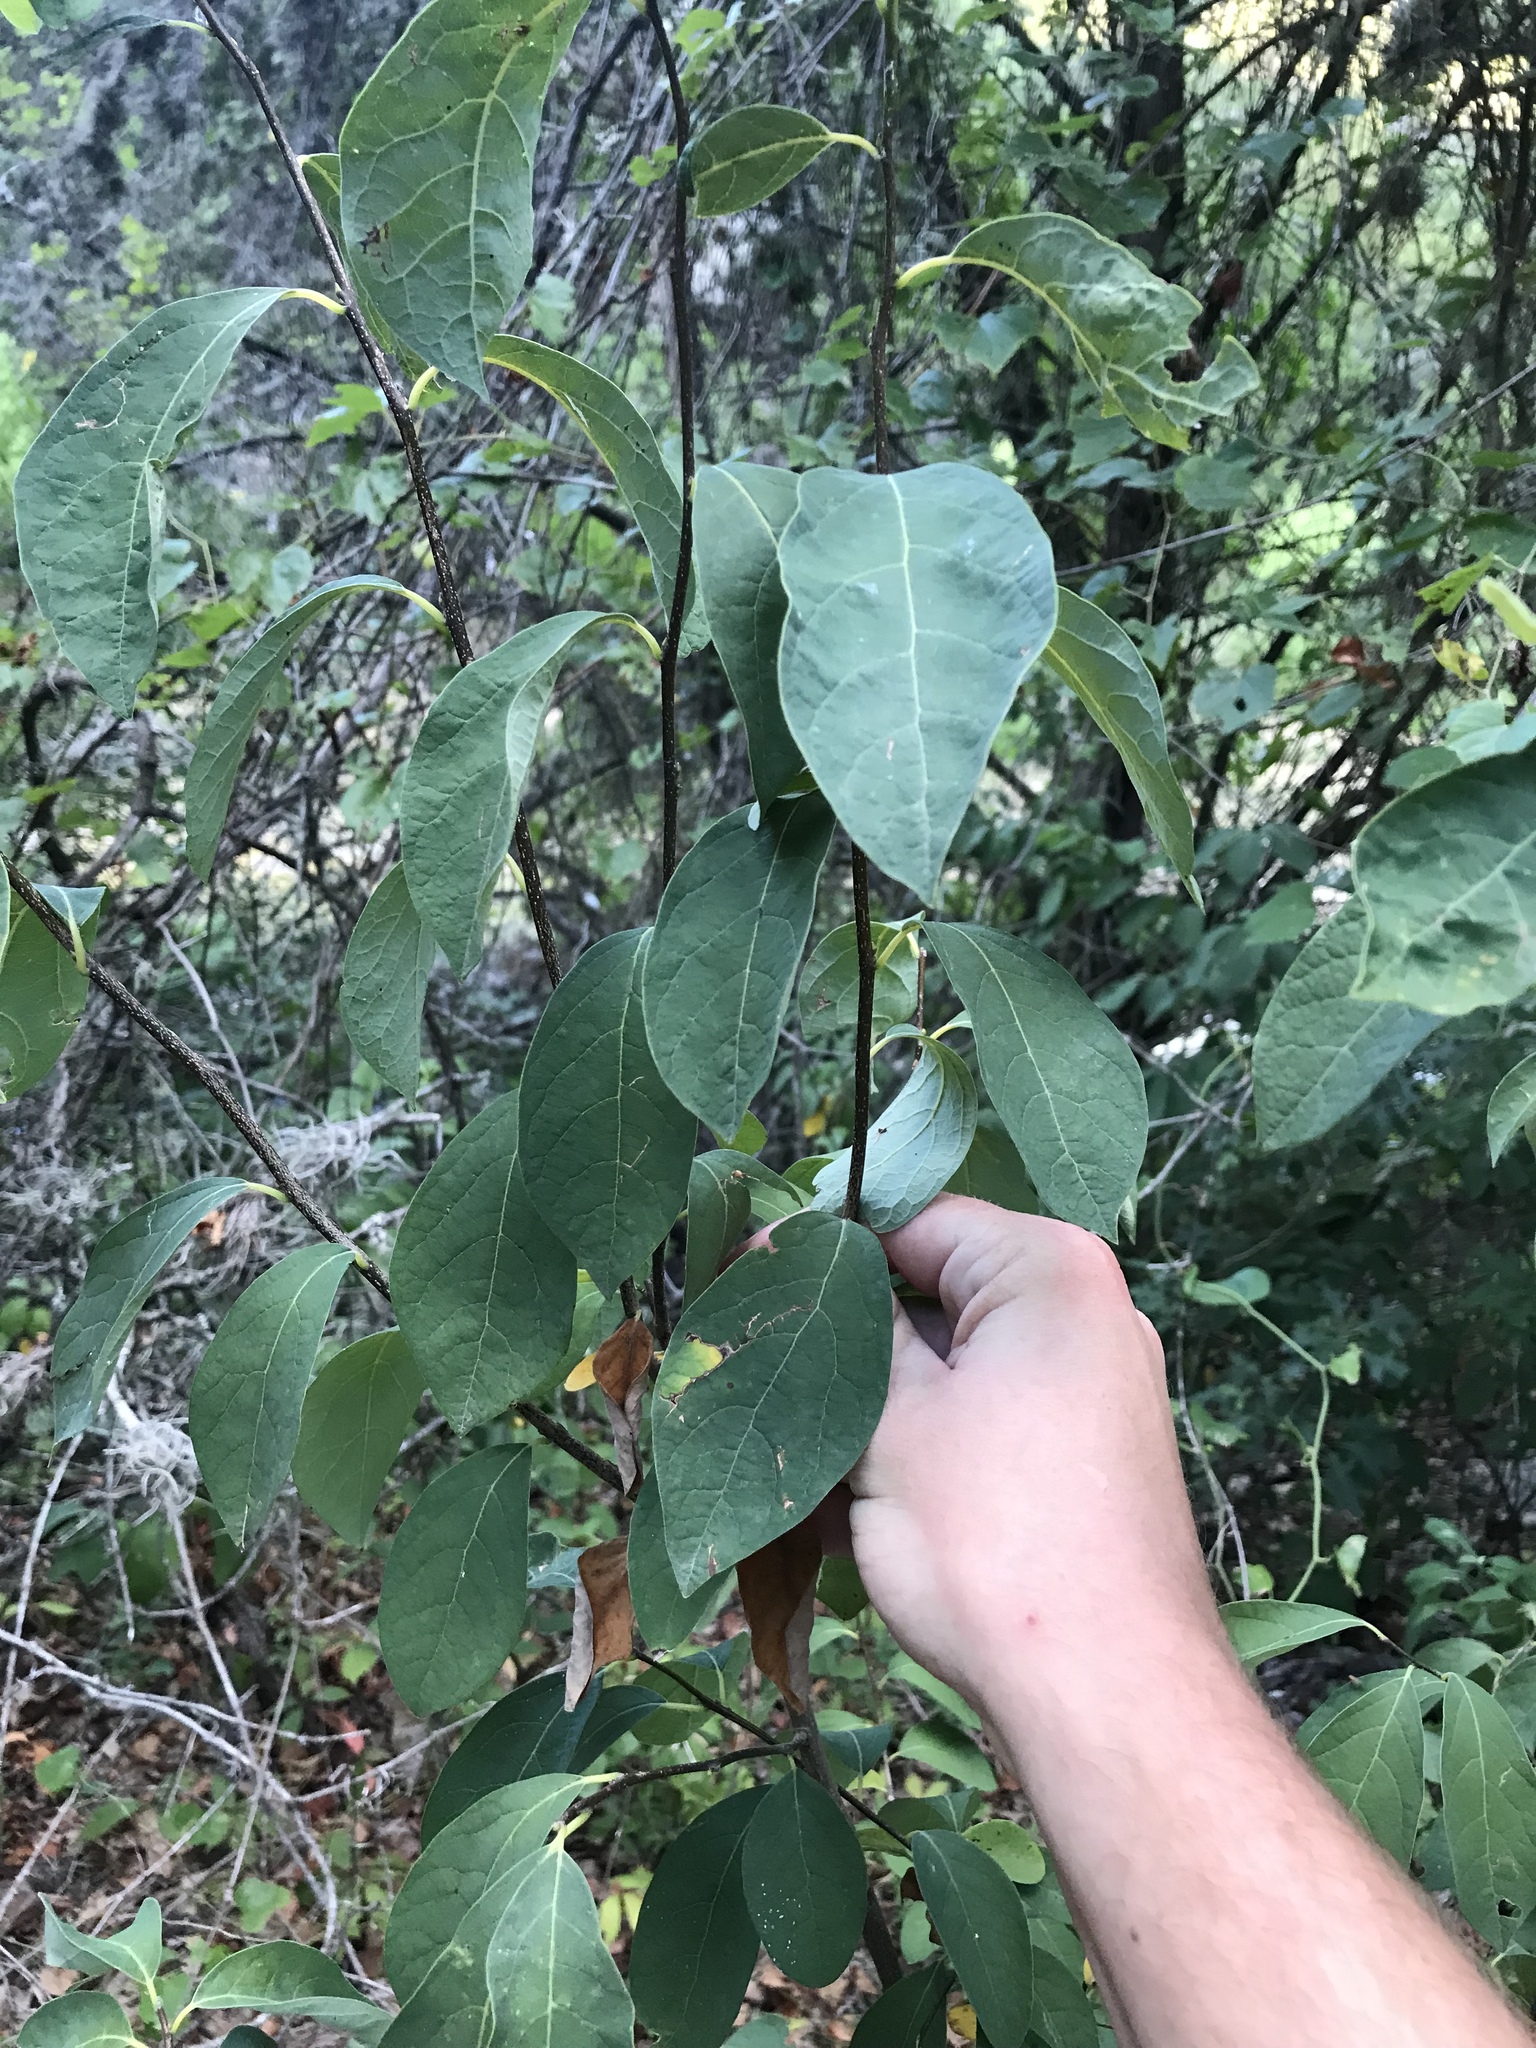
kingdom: Plantae
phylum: Tracheophyta
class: Magnoliopsida
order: Laurales
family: Lauraceae
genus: Lindera
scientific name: Lindera benzoin
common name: Spicebush
